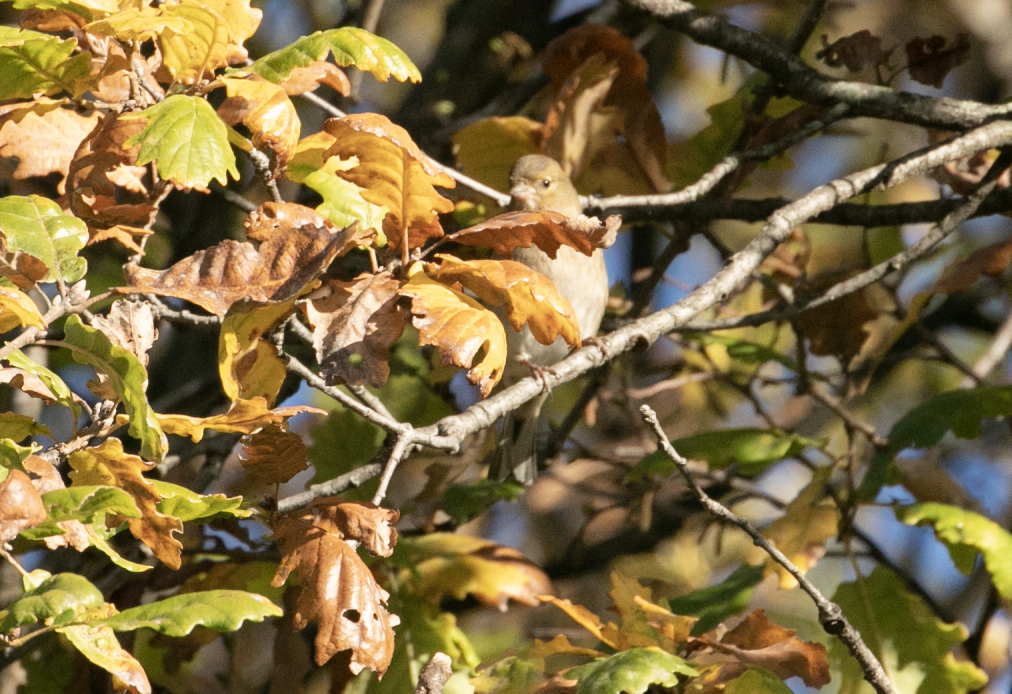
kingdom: Animalia
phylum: Chordata
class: Aves
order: Passeriformes
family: Fringillidae
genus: Fringilla
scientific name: Fringilla coelebs
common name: Common chaffinch
